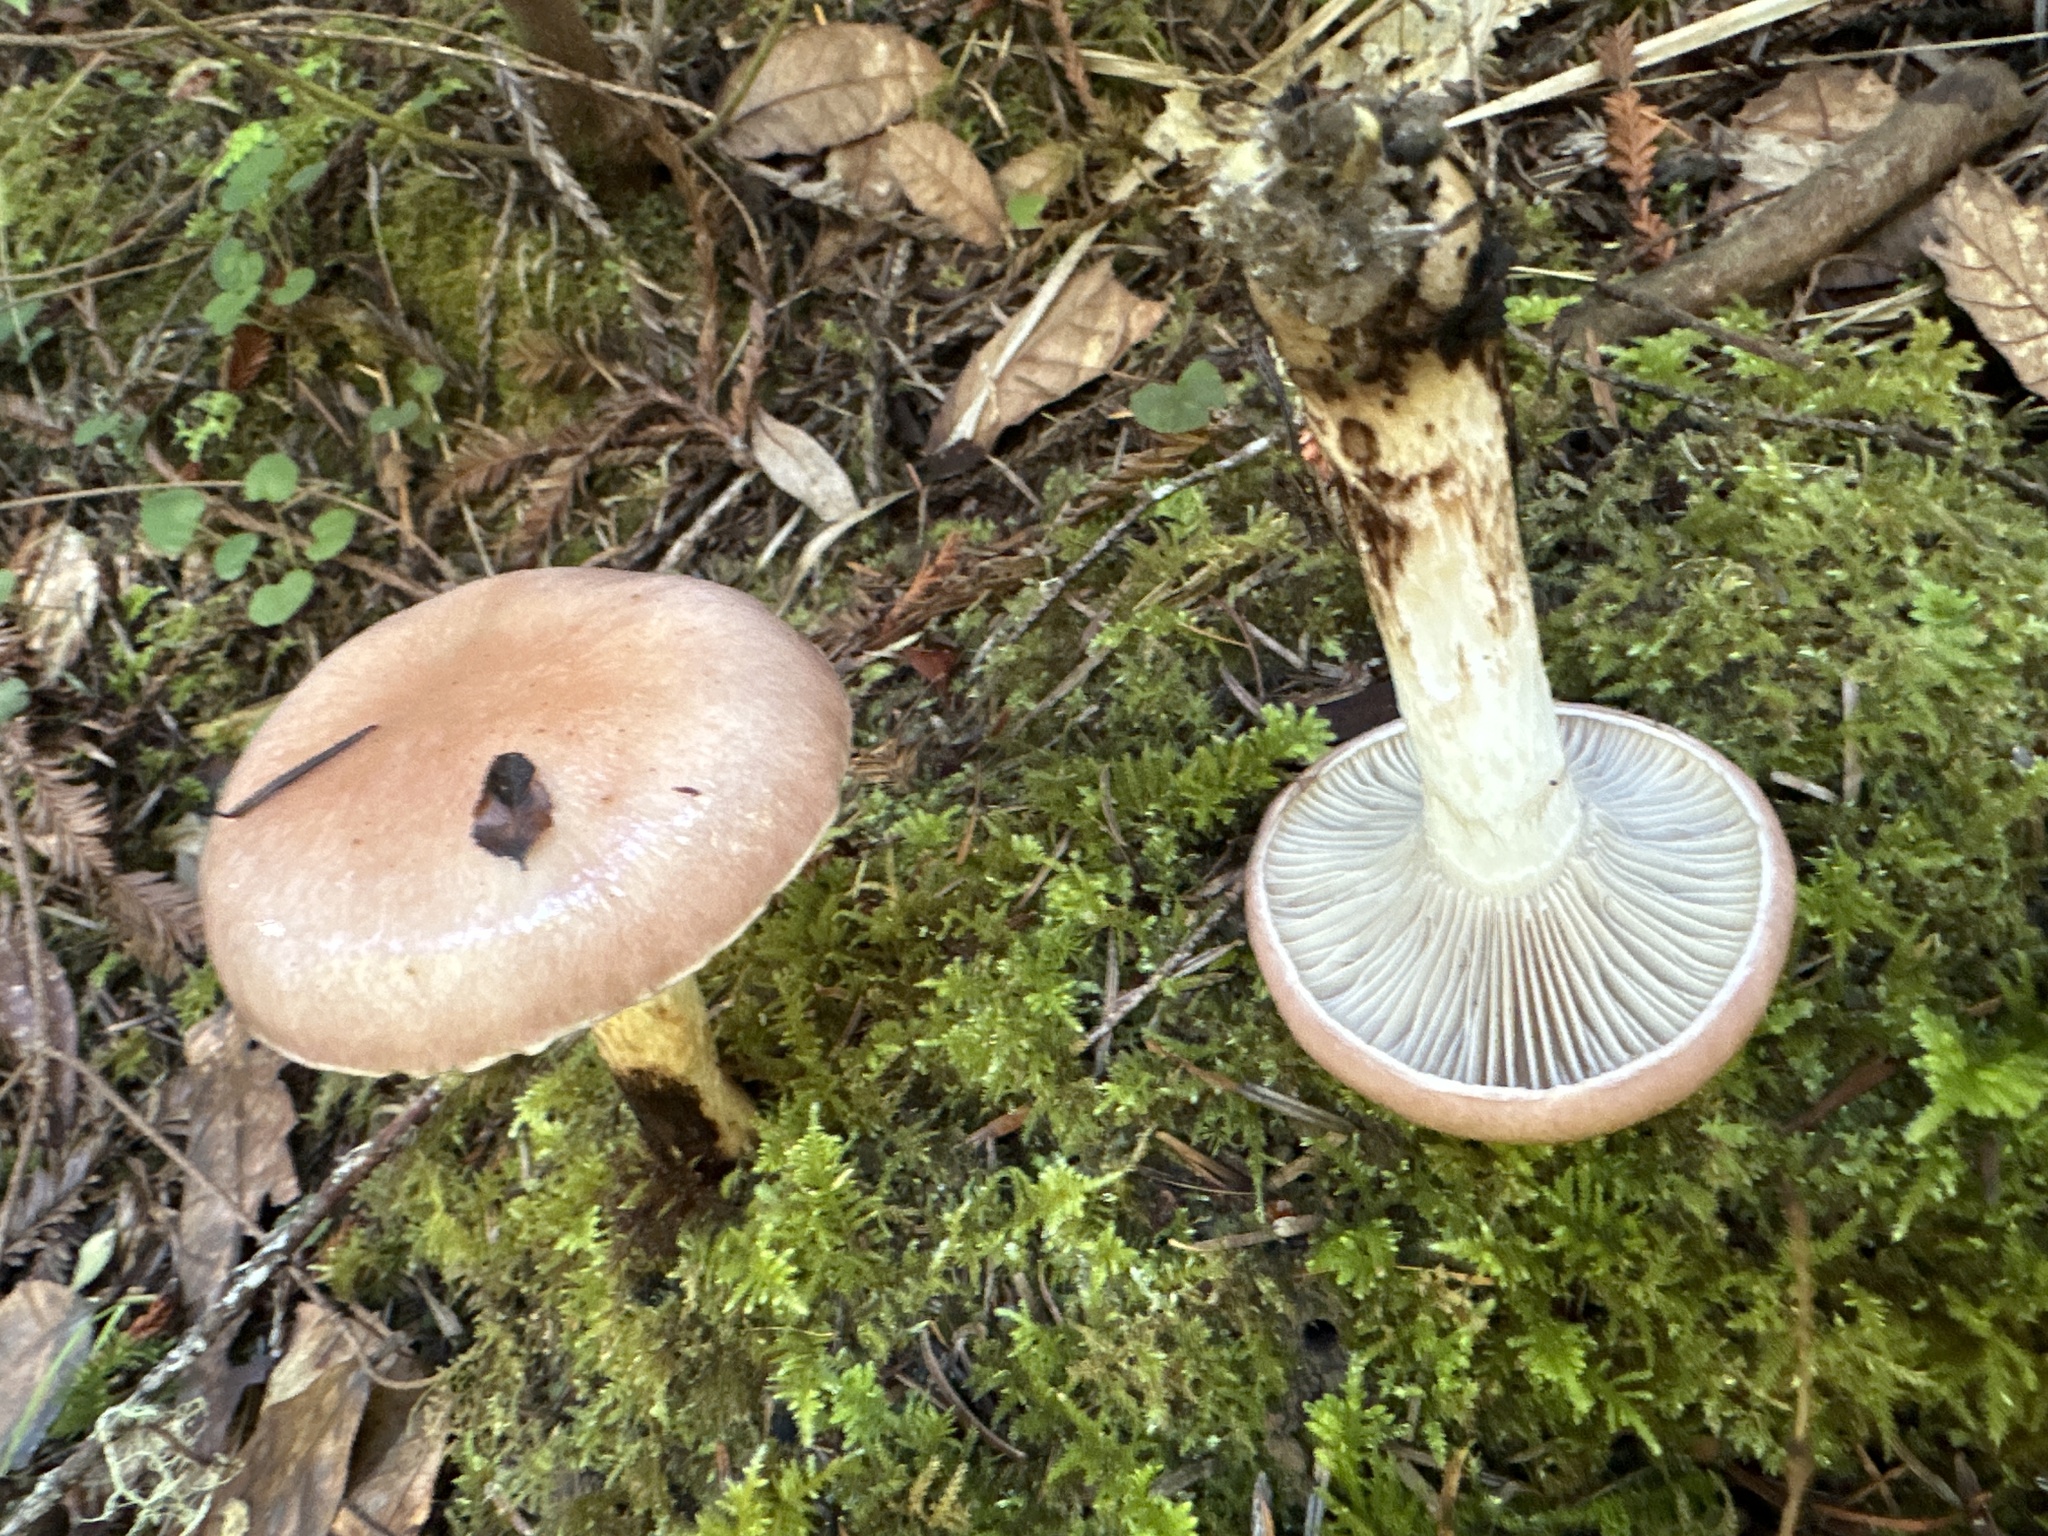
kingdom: Fungi
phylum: Basidiomycota
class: Agaricomycetes
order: Boletales
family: Gomphidiaceae
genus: Gomphidius
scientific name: Gomphidius oregonensis
